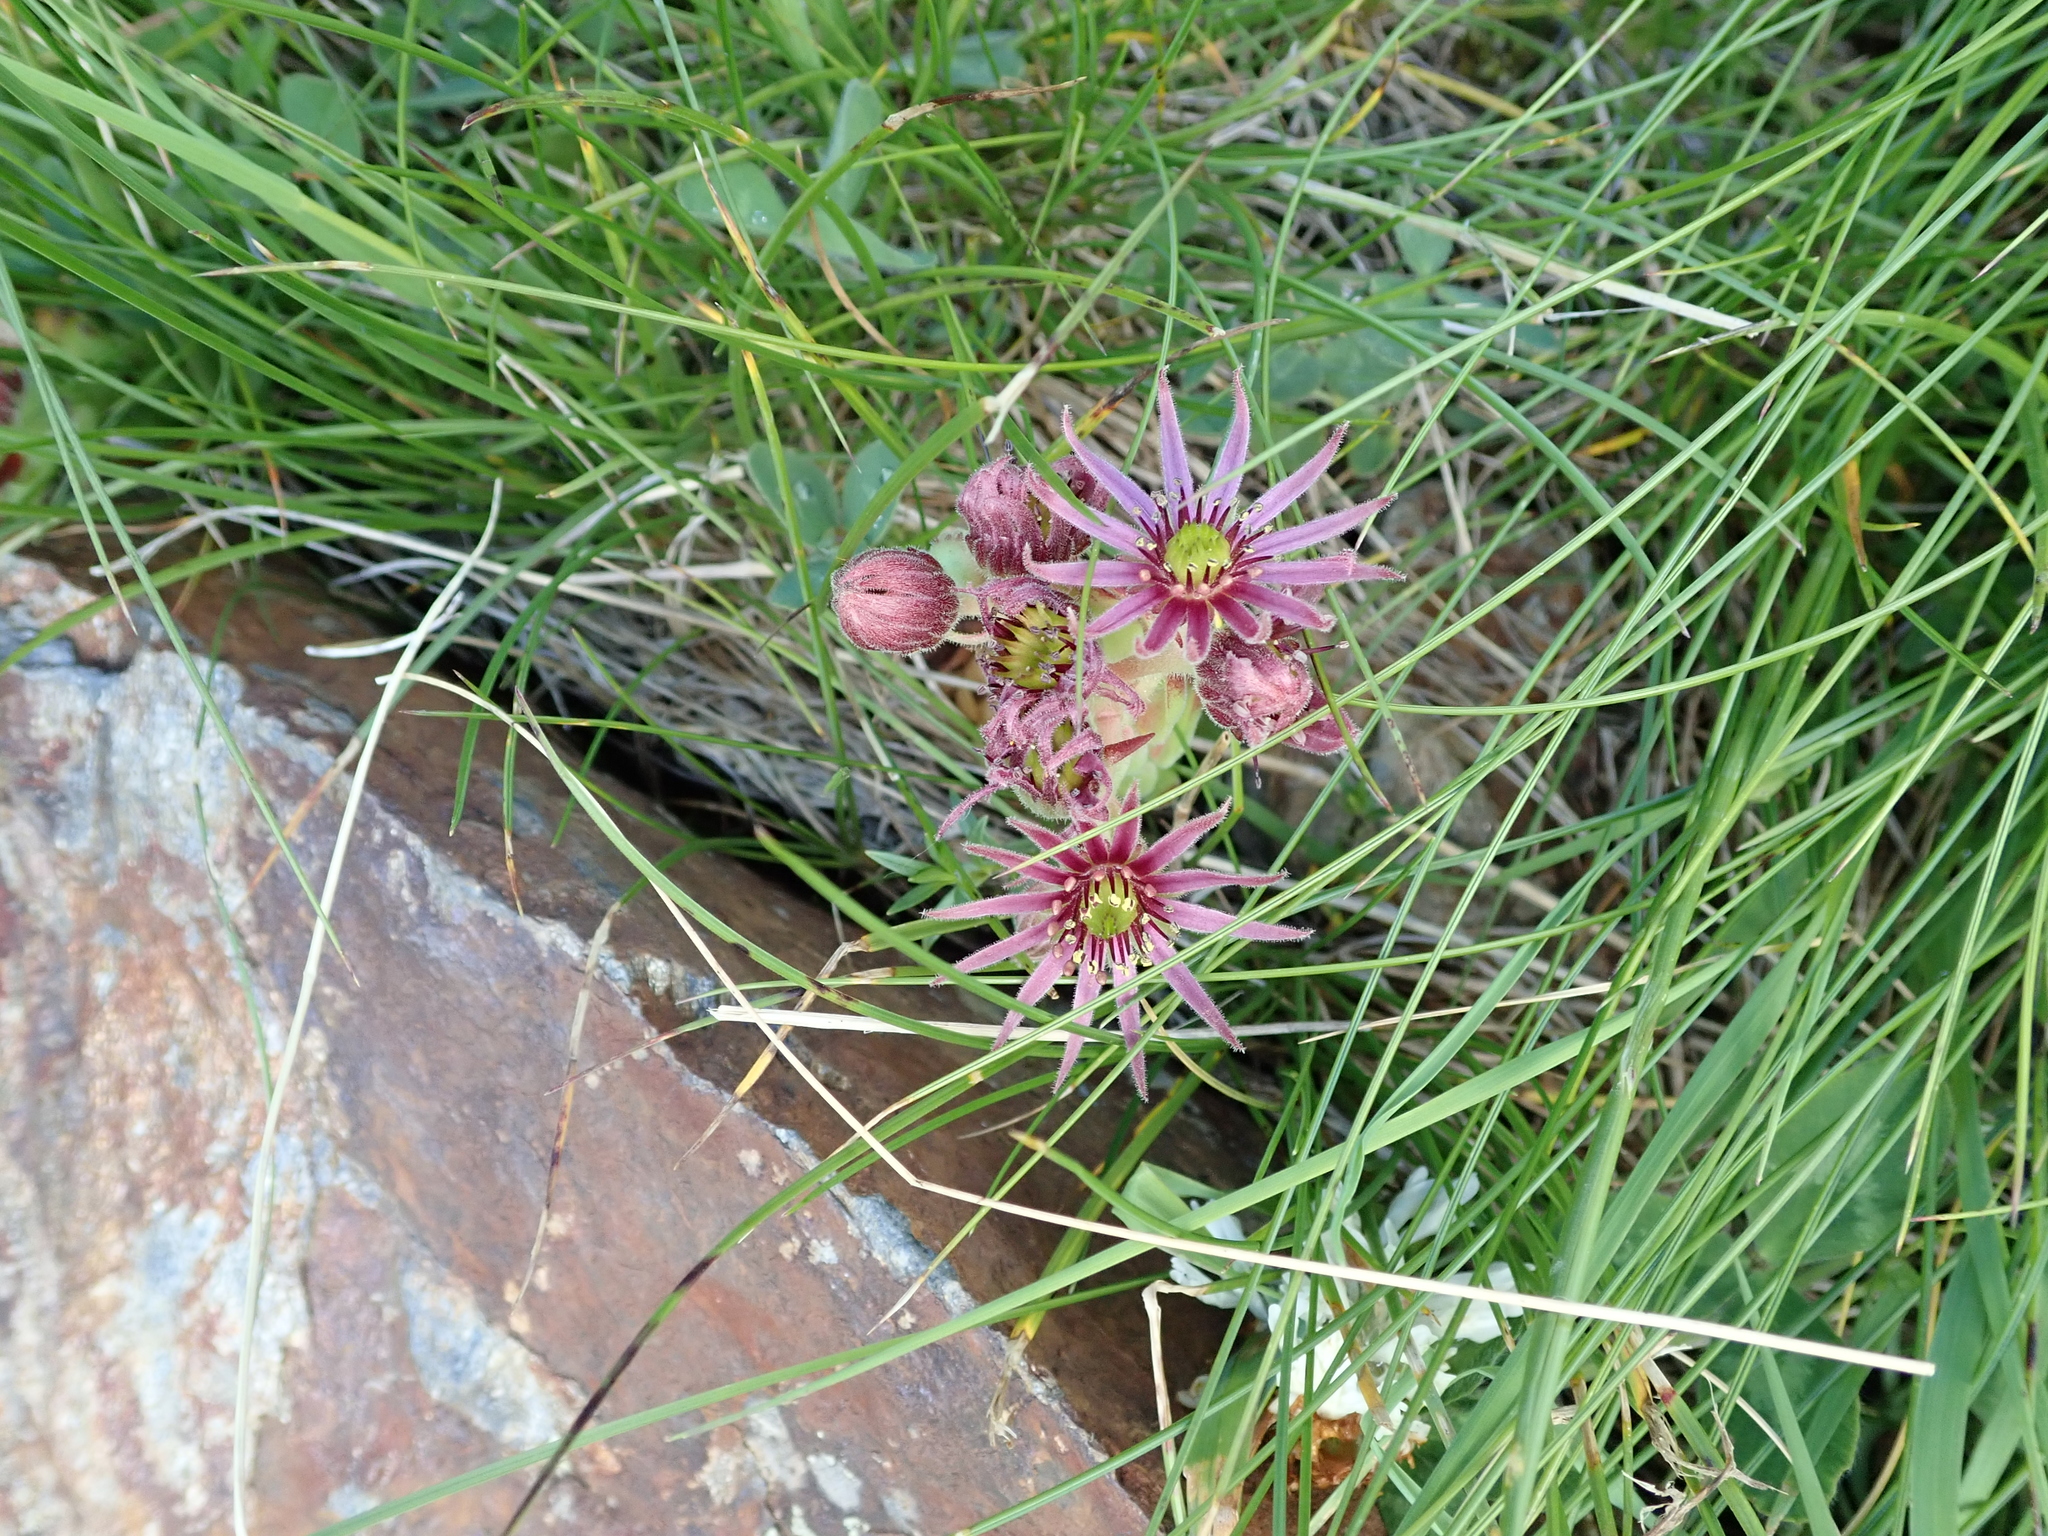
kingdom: Plantae
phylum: Tracheophyta
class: Magnoliopsida
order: Saxifragales
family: Crassulaceae
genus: Sempervivum
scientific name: Sempervivum montanum
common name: Mountain house-leek
